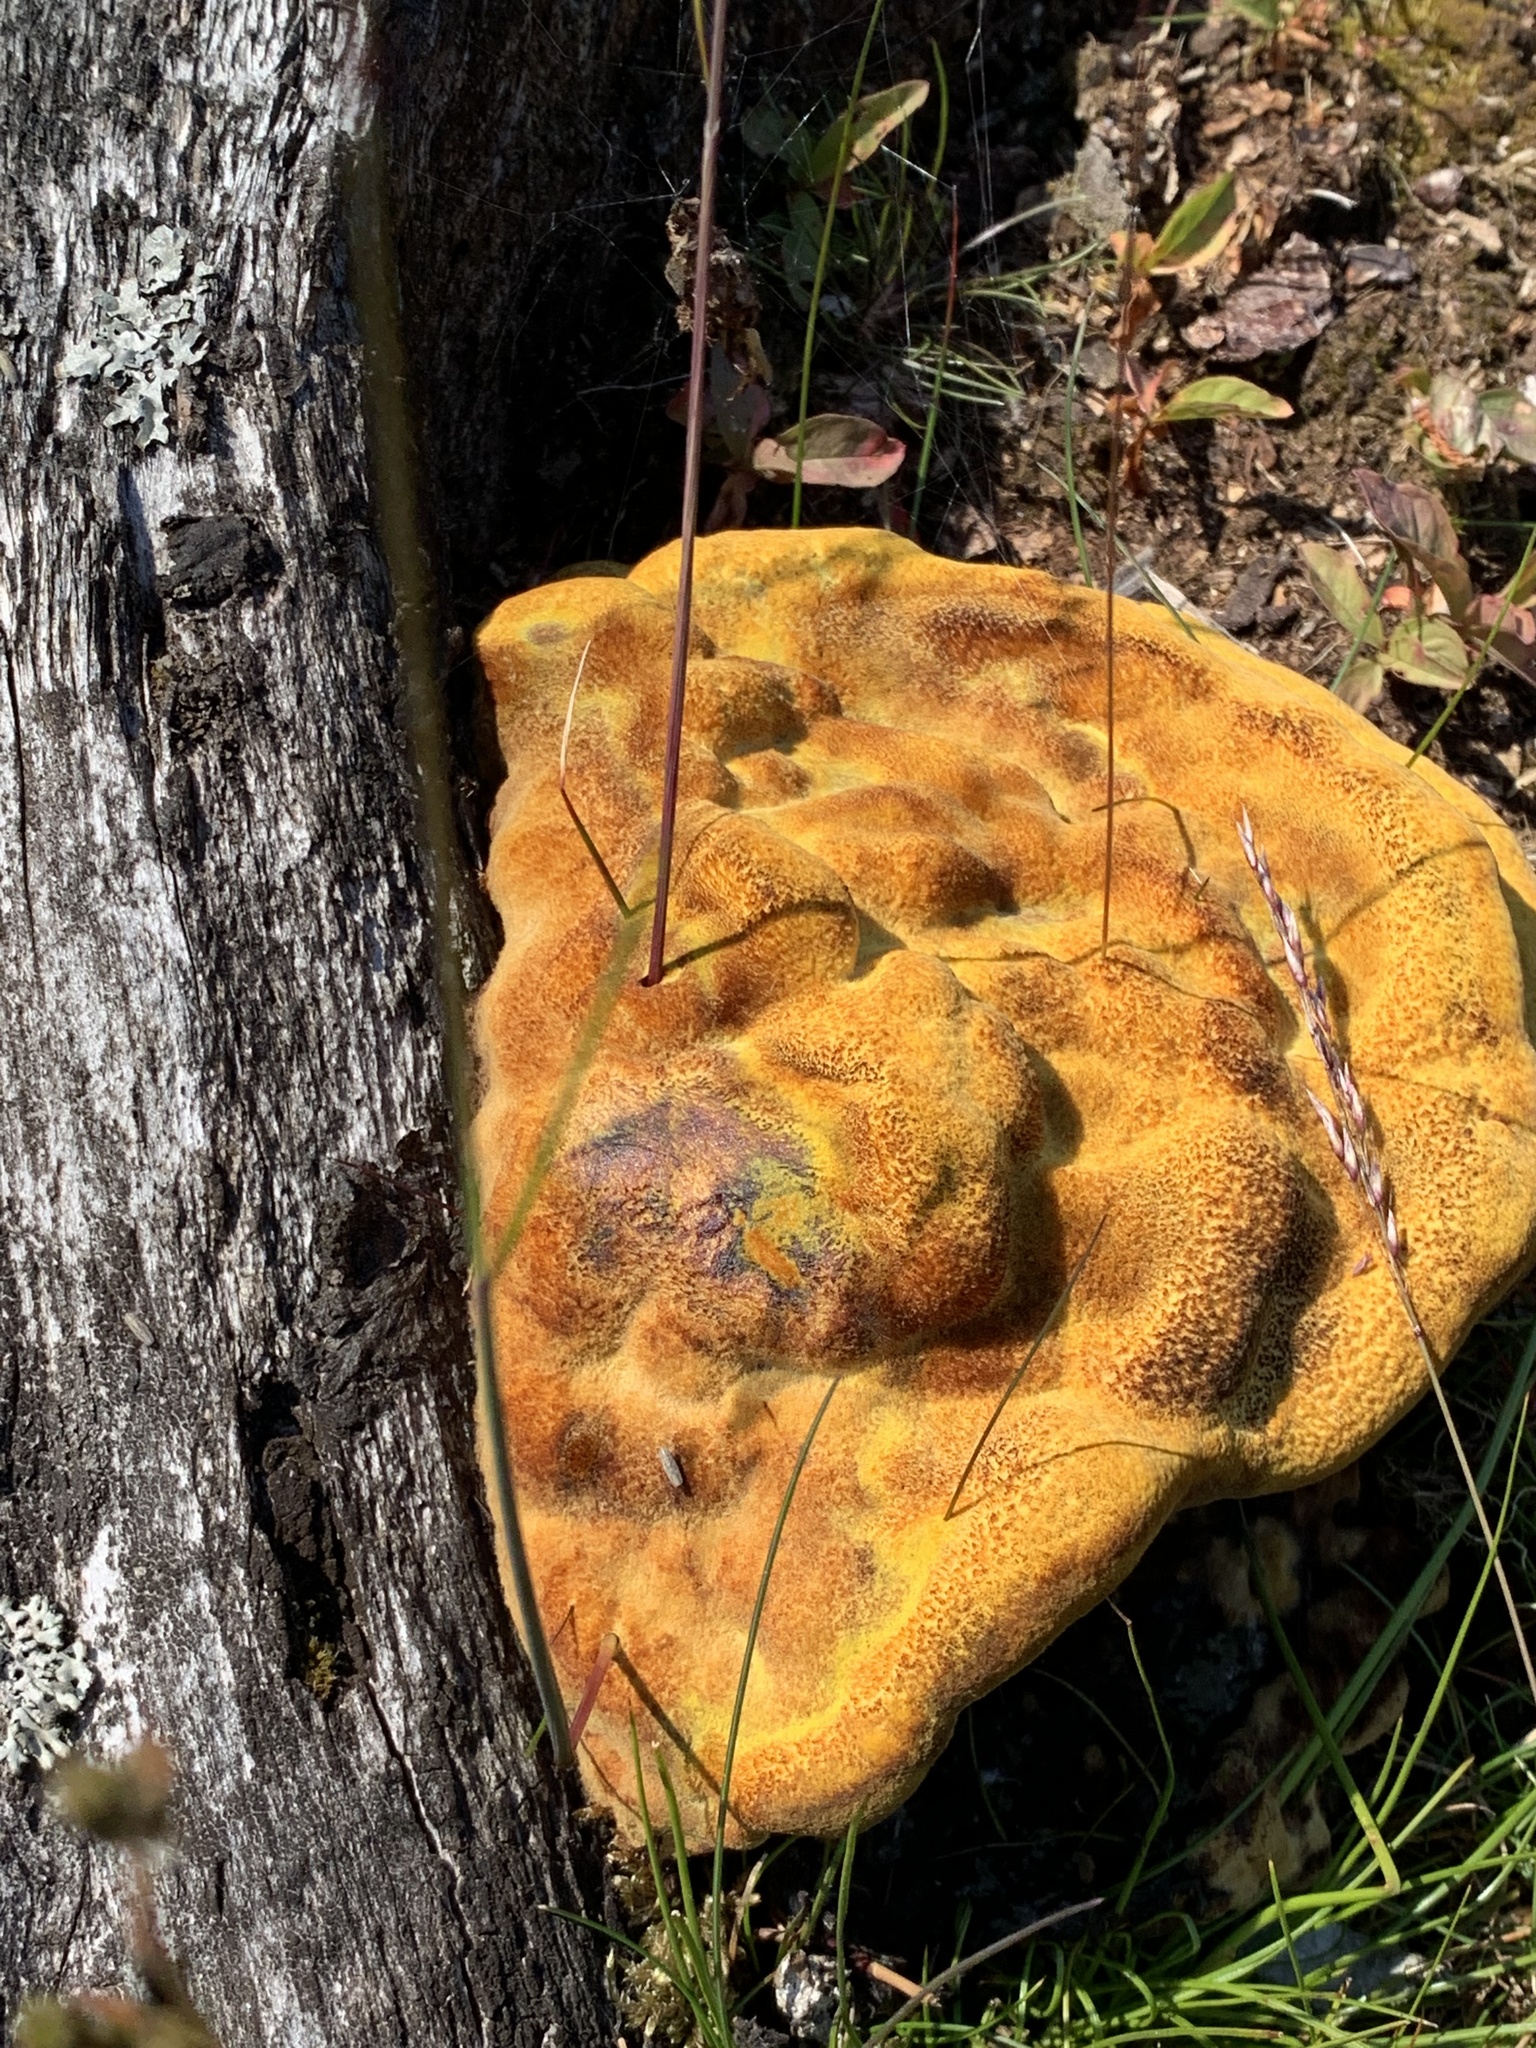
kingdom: Fungi
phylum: Basidiomycota
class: Agaricomycetes
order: Polyporales
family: Laetiporaceae
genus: Phaeolus
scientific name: Phaeolus schweinitzii
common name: Dyer's mazegill
